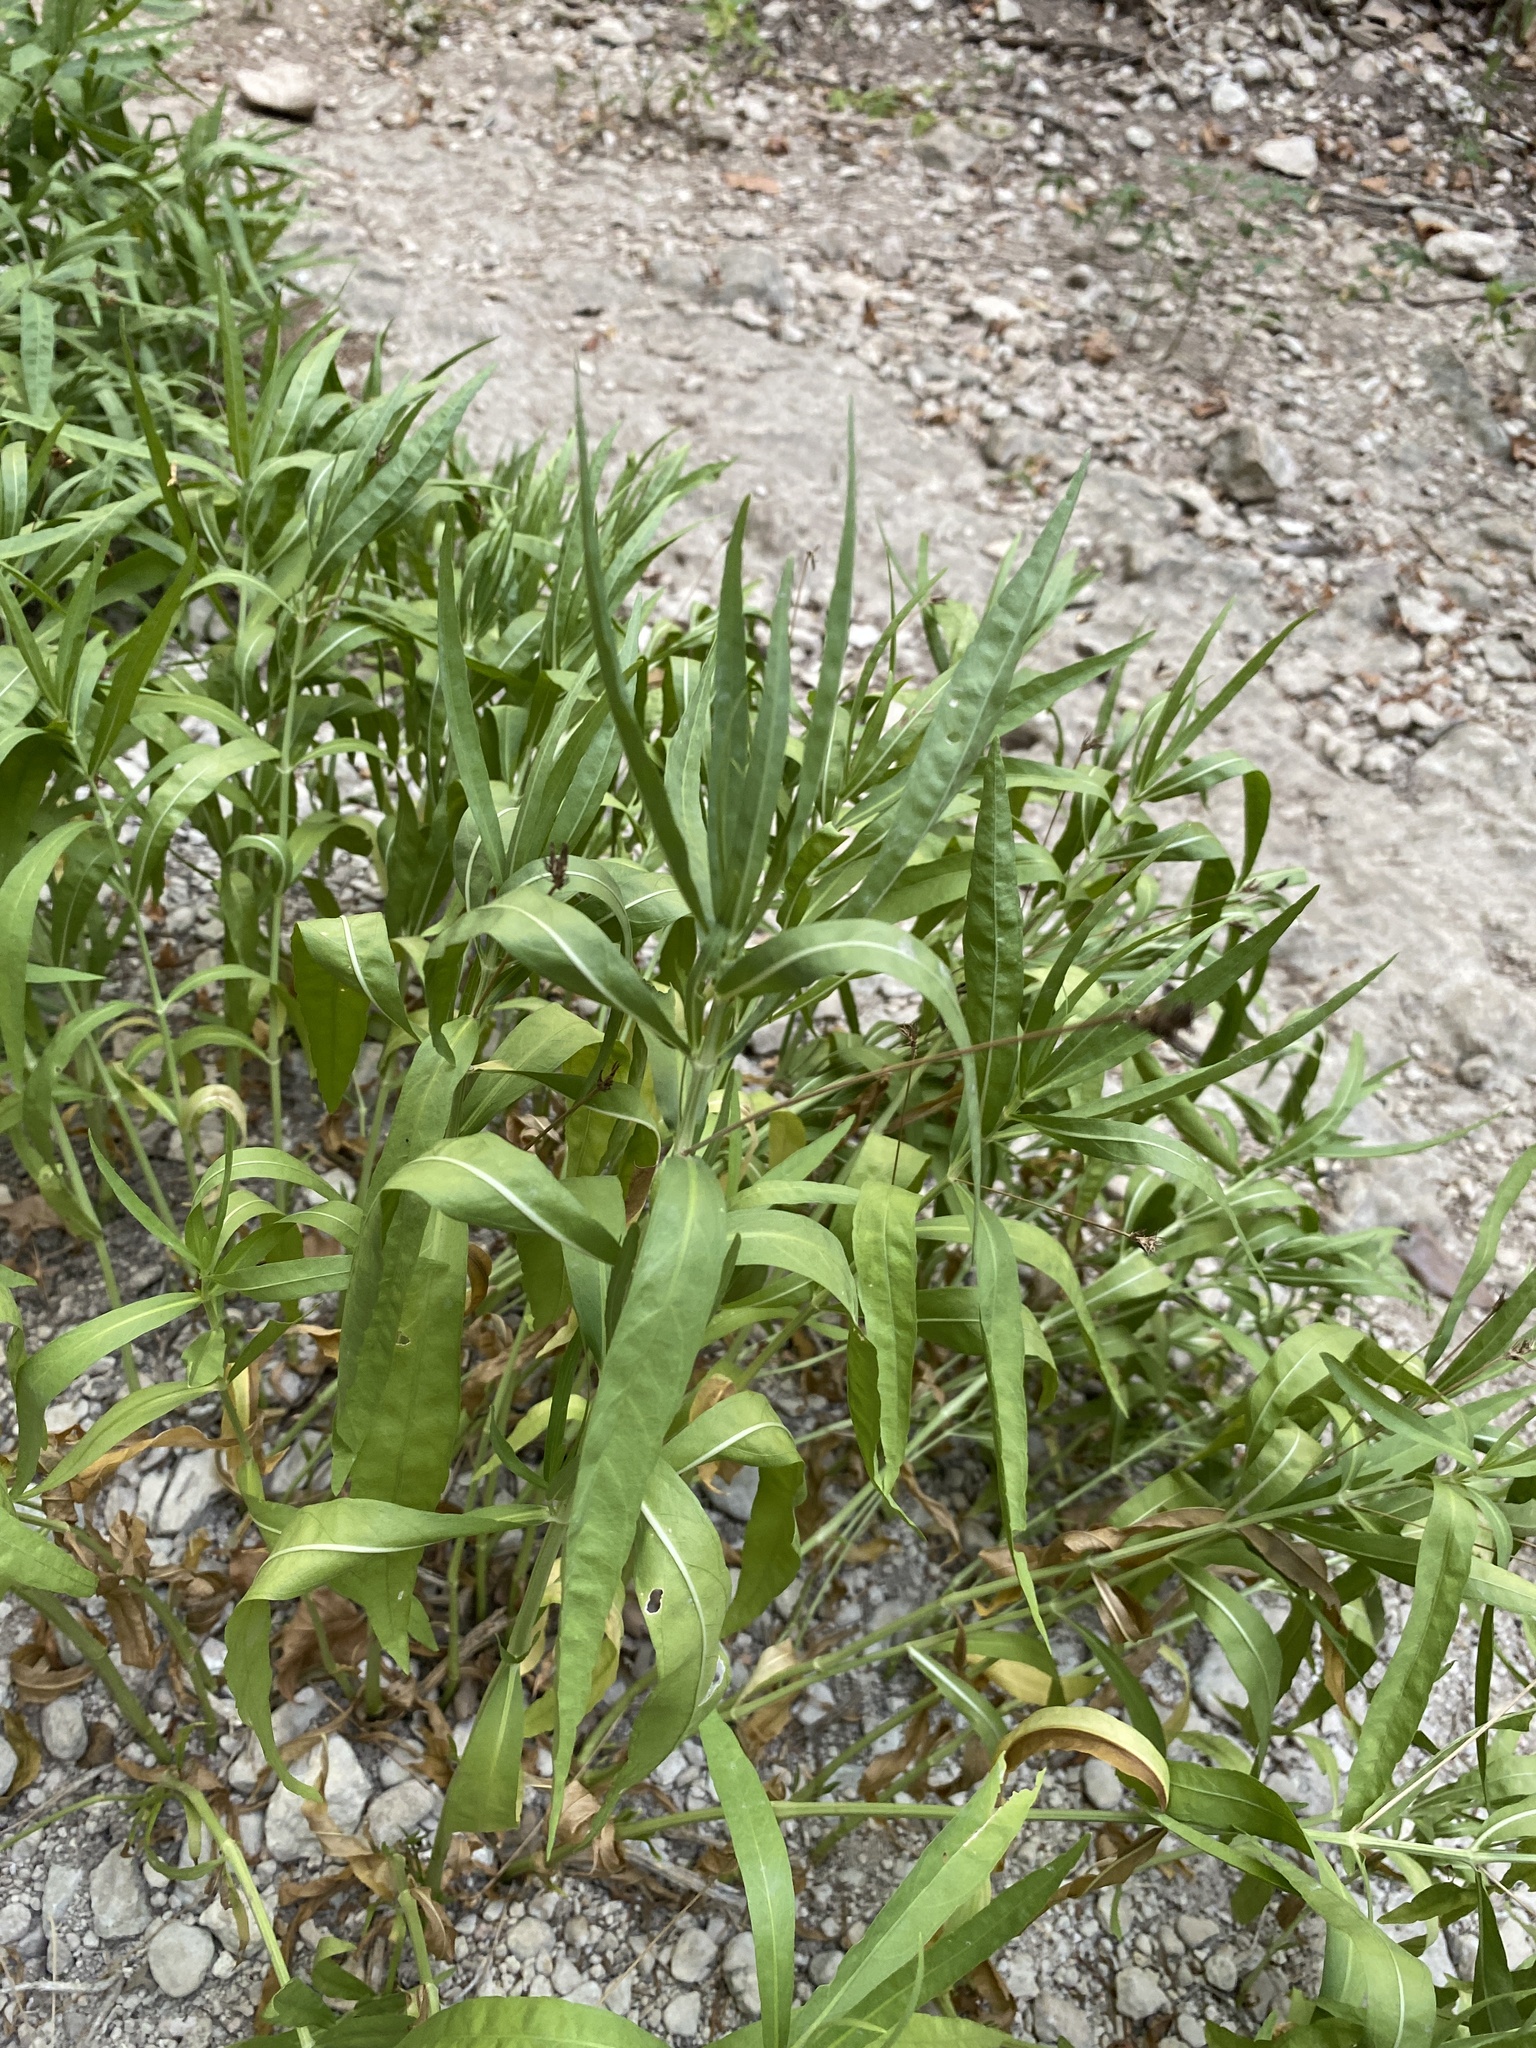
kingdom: Plantae
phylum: Tracheophyta
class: Magnoliopsida
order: Lamiales
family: Acanthaceae
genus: Dianthera
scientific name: Dianthera americana
